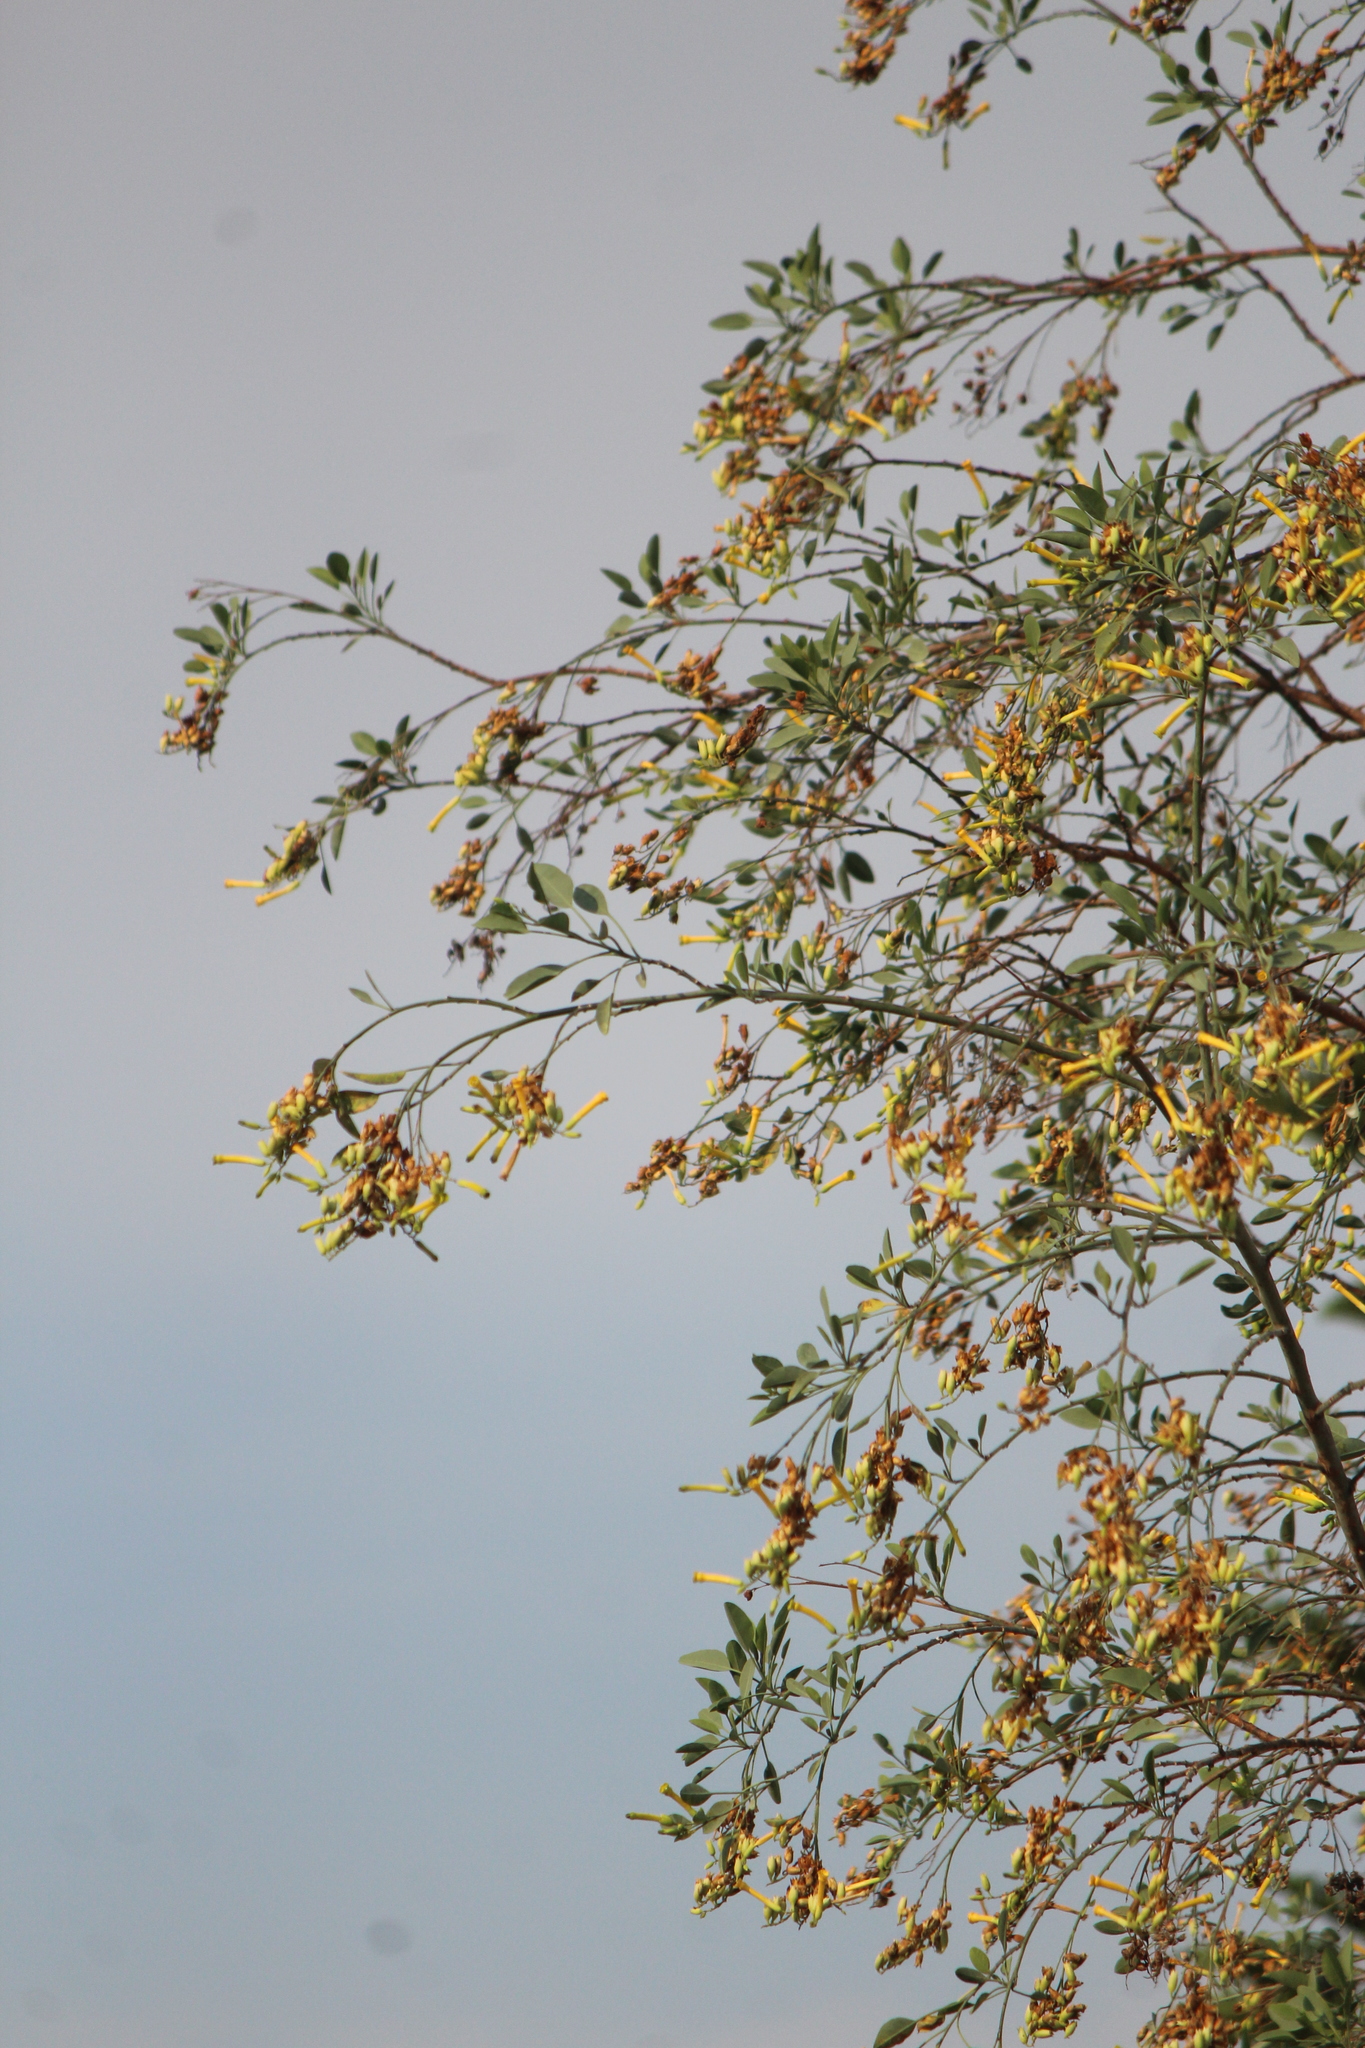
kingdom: Plantae
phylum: Tracheophyta
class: Magnoliopsida
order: Solanales
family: Solanaceae
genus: Nicotiana
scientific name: Nicotiana glauca
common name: Tree tobacco
